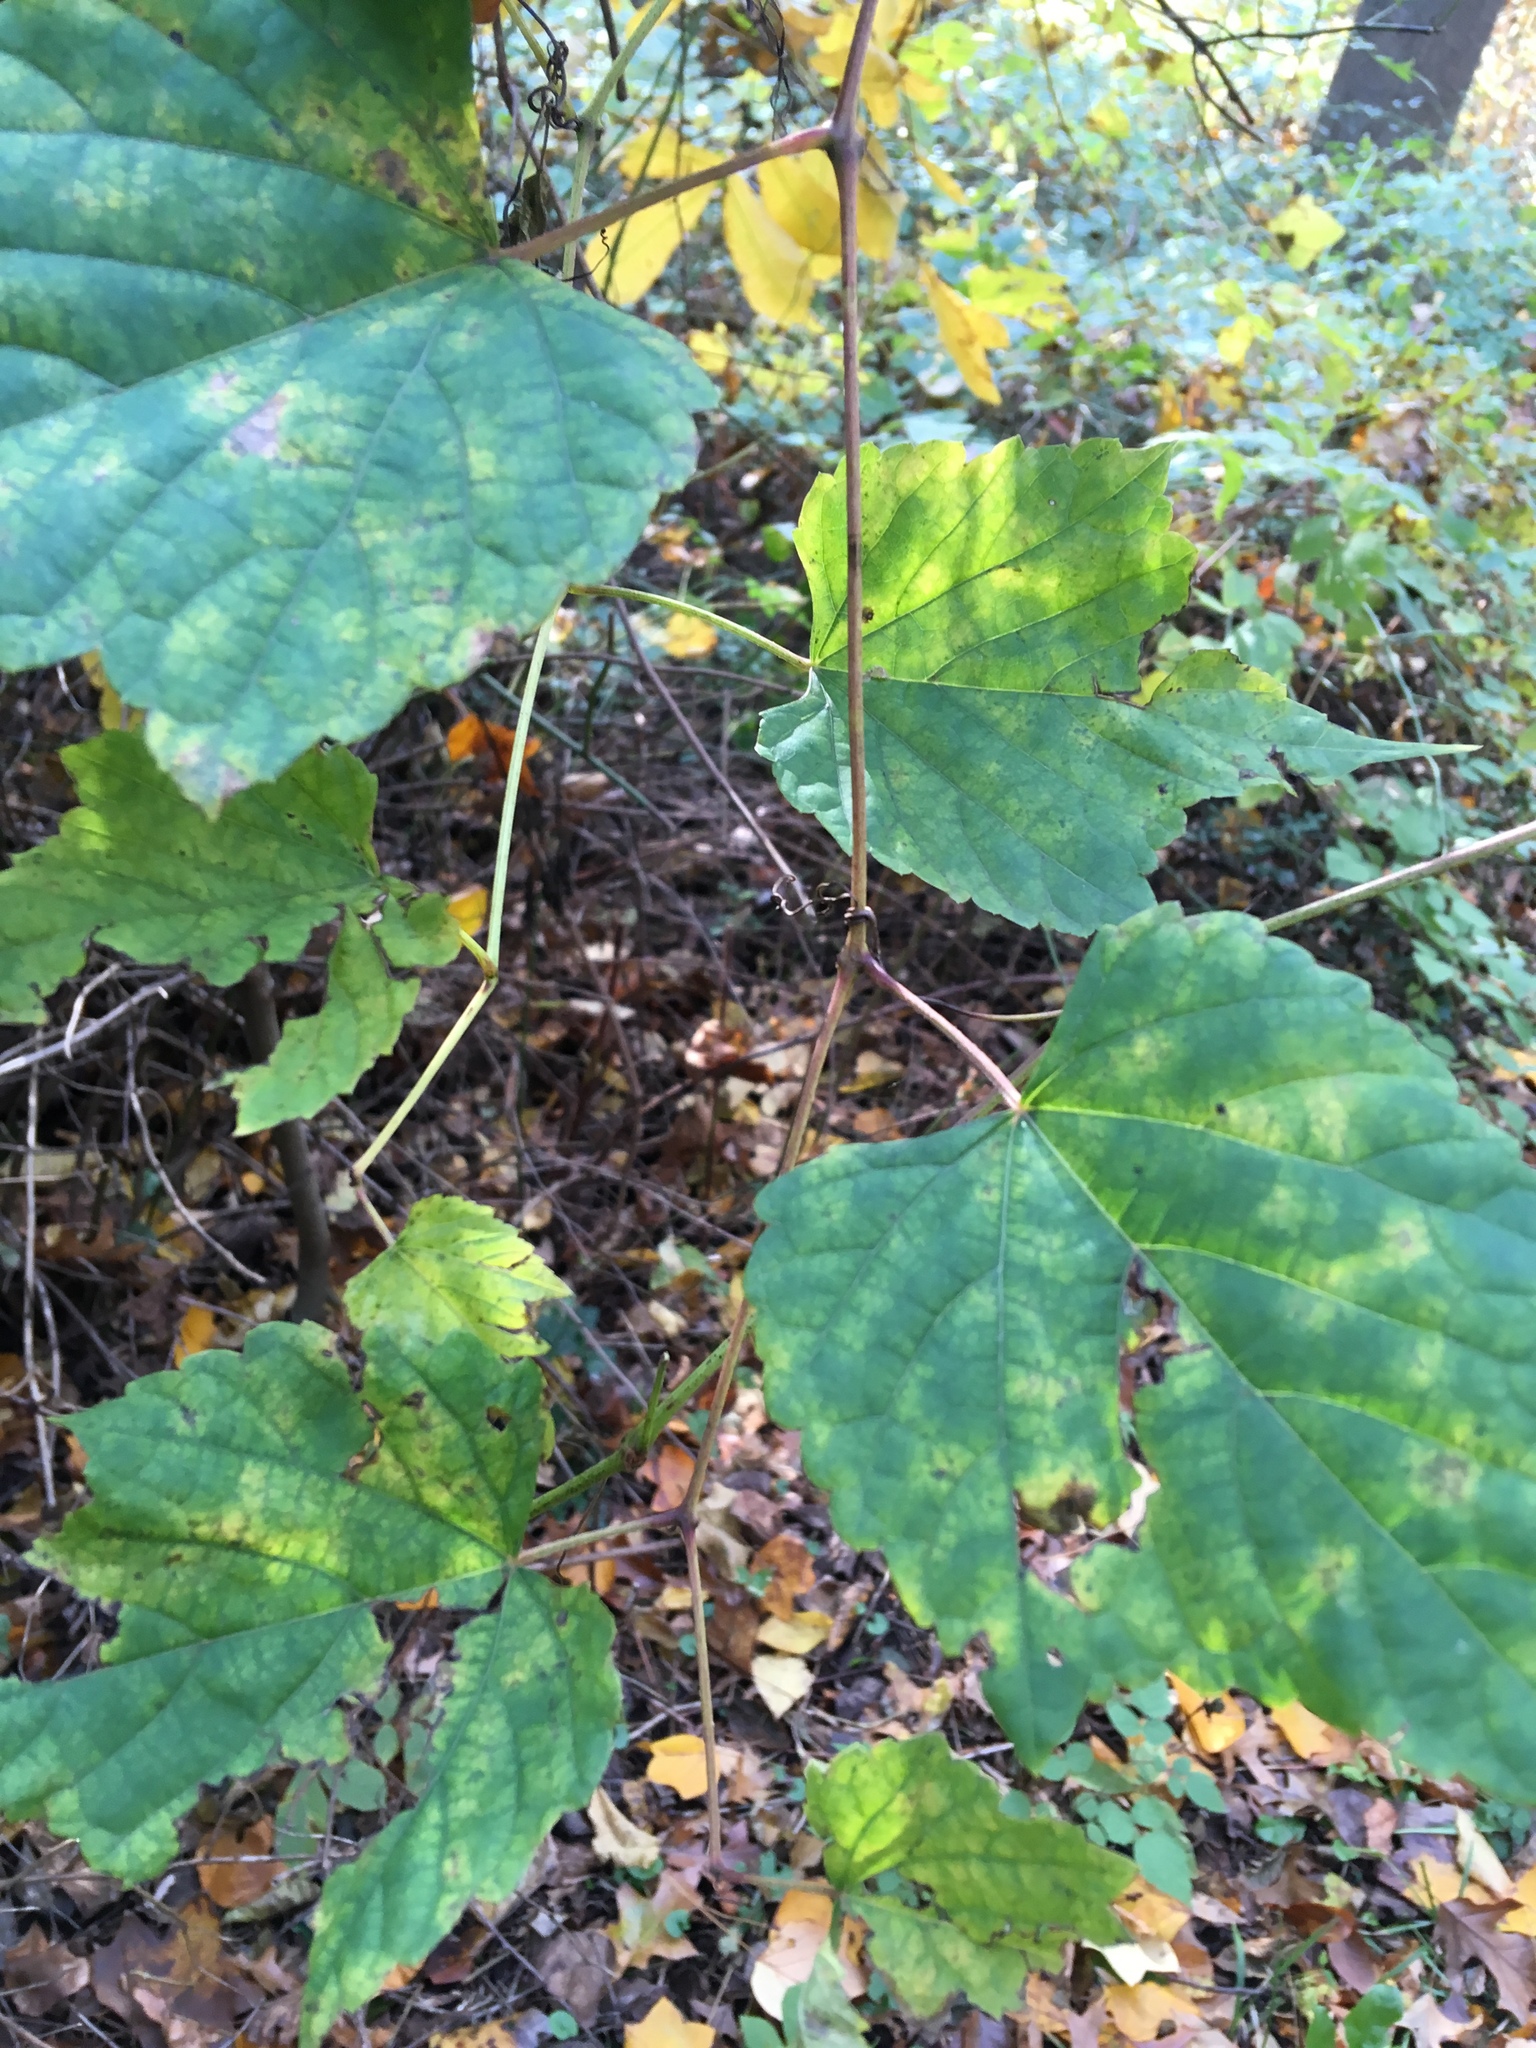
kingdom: Plantae
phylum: Tracheophyta
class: Magnoliopsida
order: Vitales
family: Vitaceae
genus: Ampelopsis
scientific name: Ampelopsis glandulosa
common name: Amur peppervine
